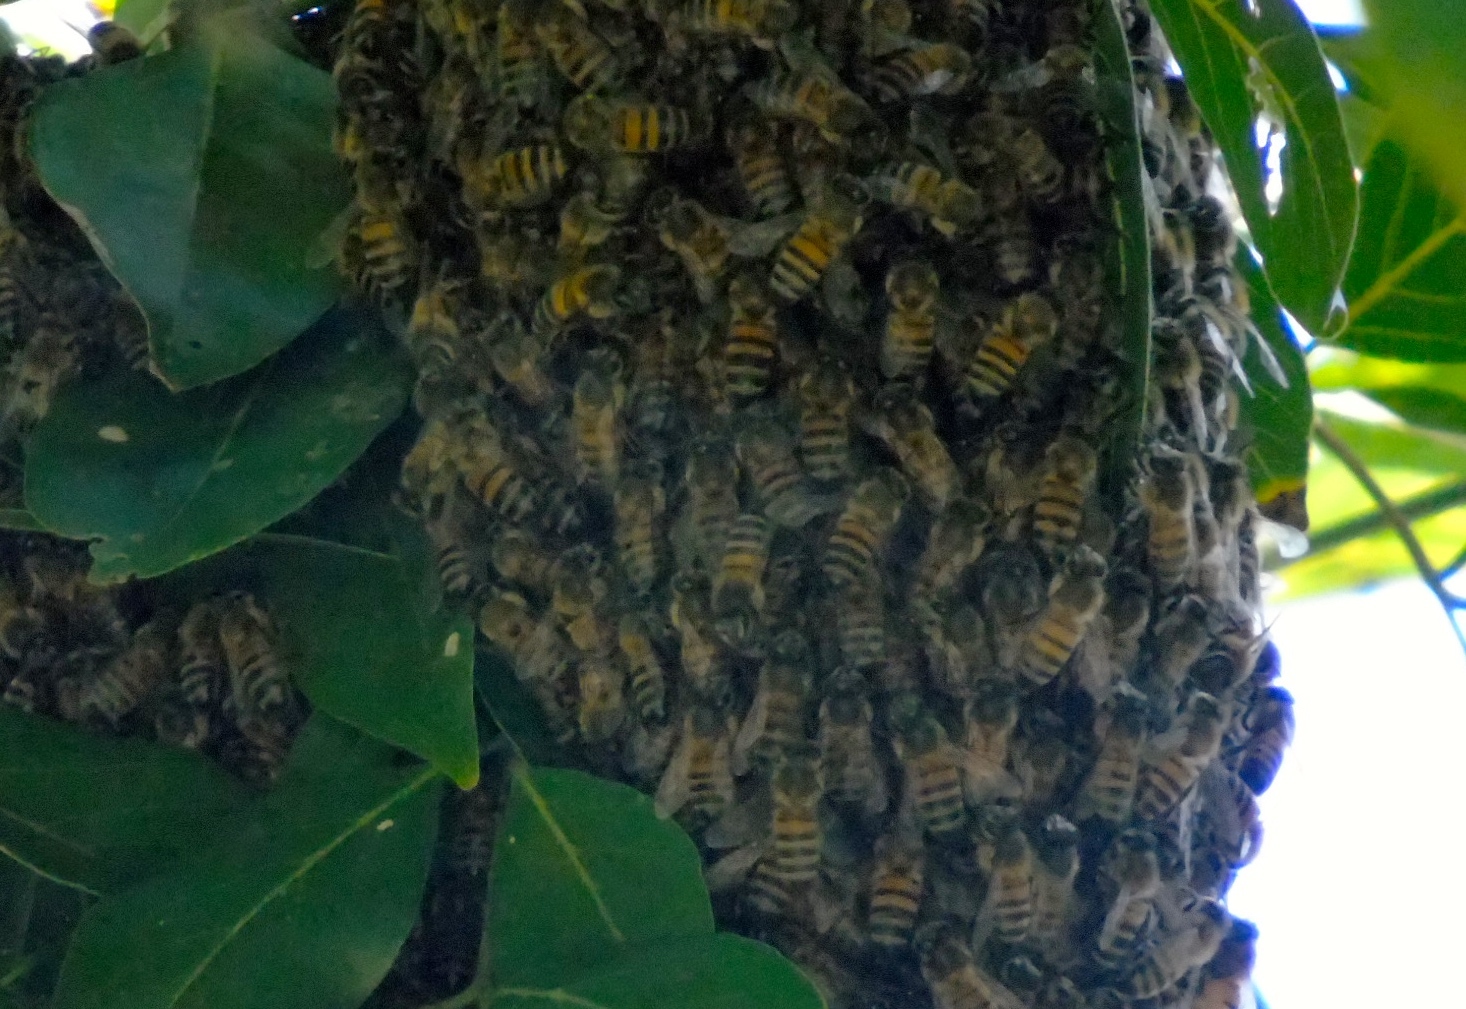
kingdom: Animalia
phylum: Arthropoda
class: Insecta
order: Hymenoptera
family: Apidae
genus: Apis
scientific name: Apis mellifera
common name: Honey bee
